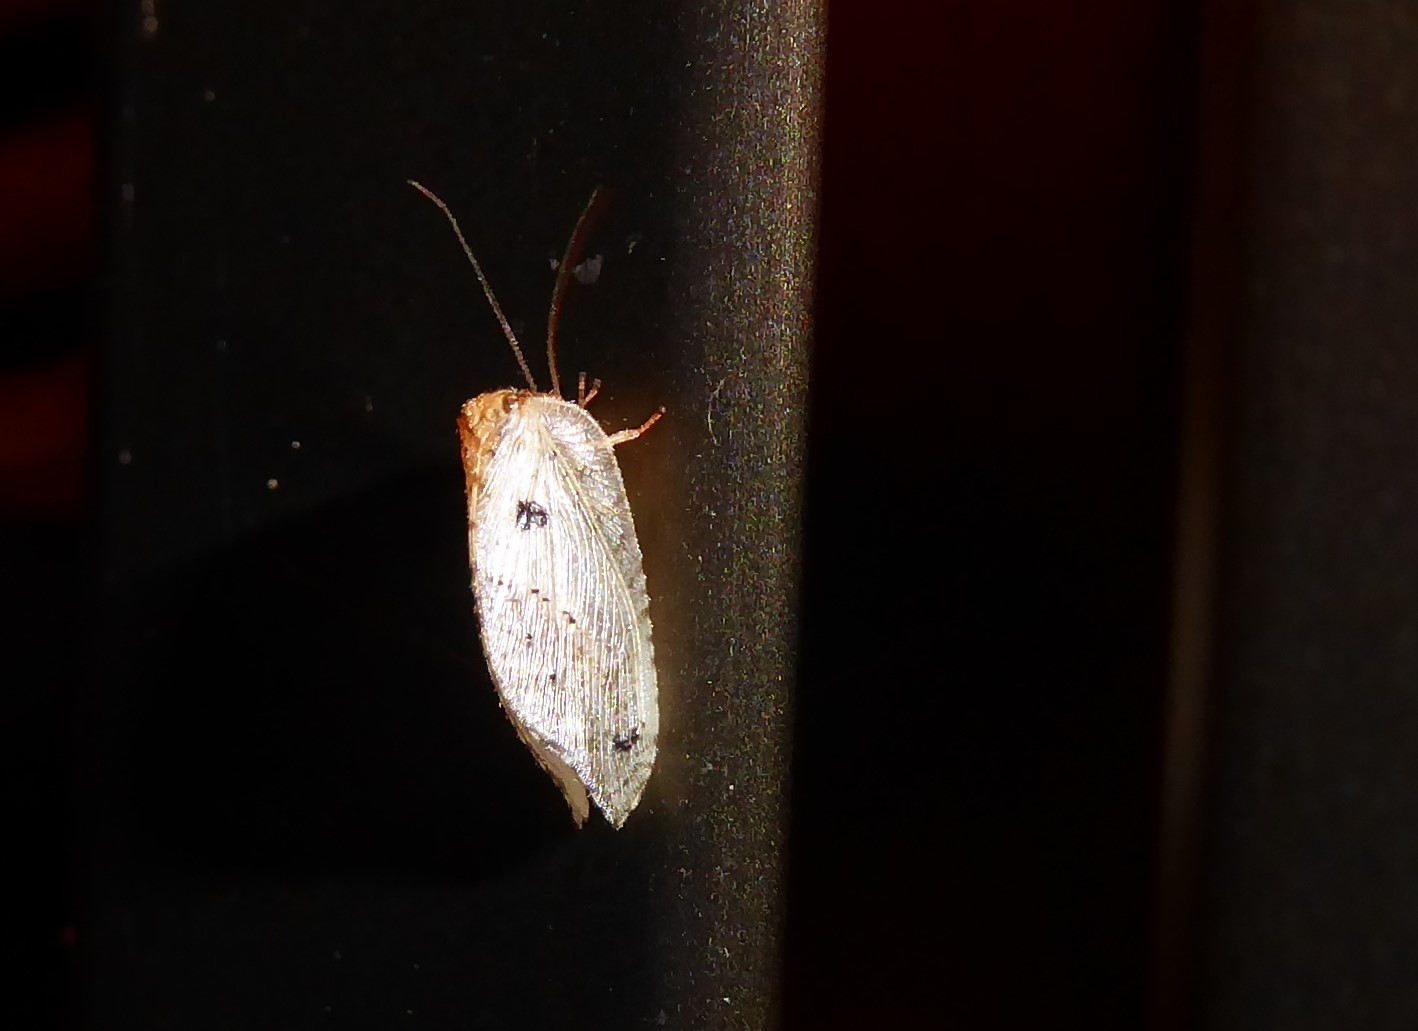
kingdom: Animalia
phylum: Arthropoda
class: Insecta
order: Neuroptera
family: Hemerobiidae
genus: Drepanacra
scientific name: Drepanacra binocula
